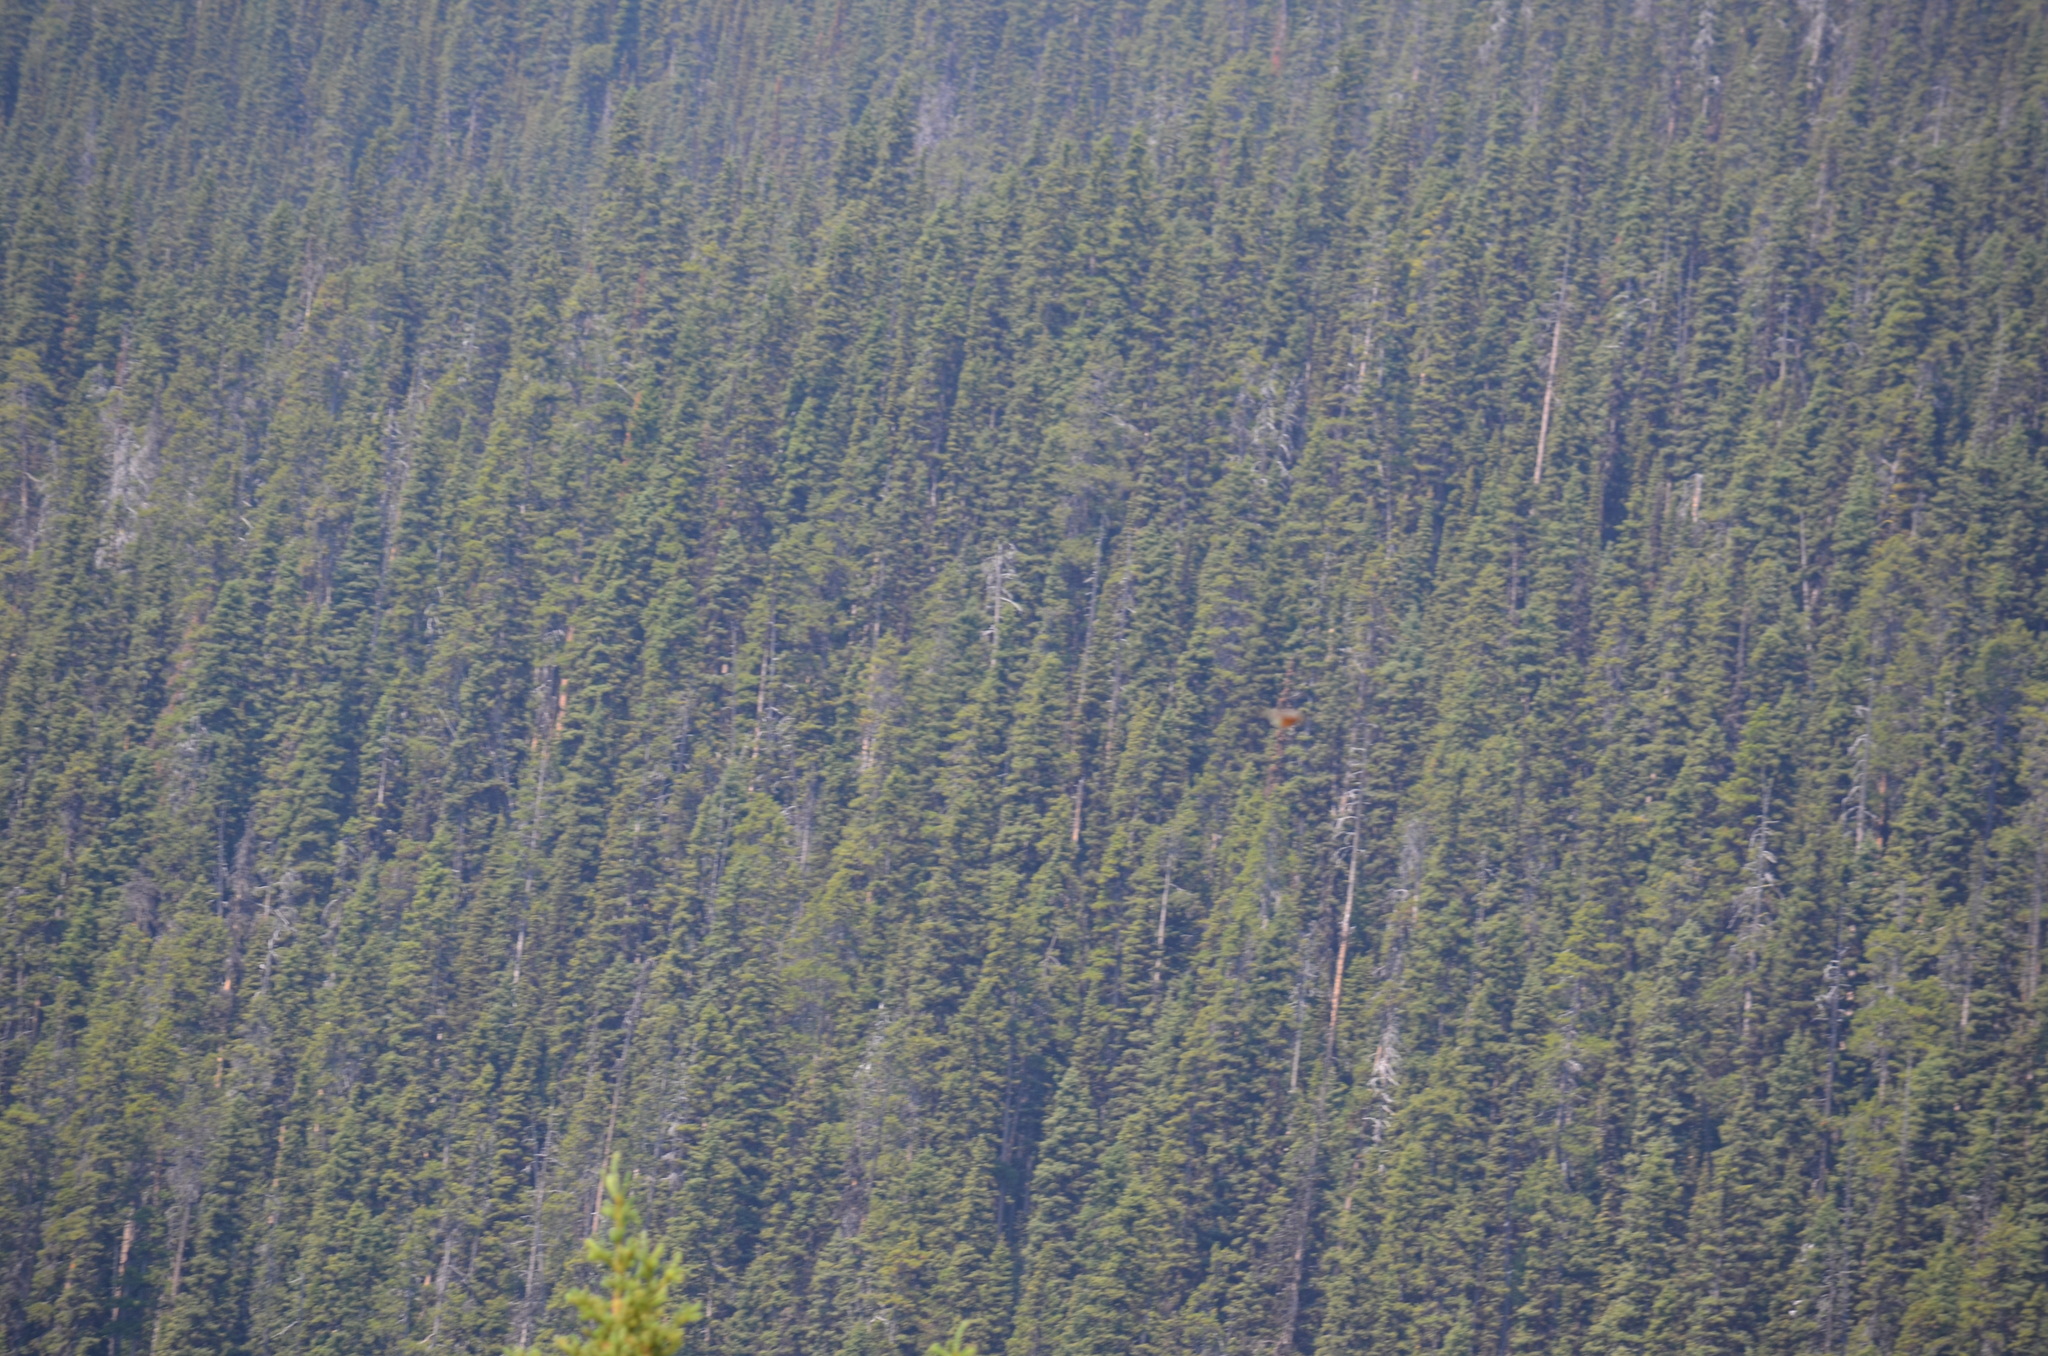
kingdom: Animalia
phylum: Chordata
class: Aves
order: Passeriformes
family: Turdidae
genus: Turdus
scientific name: Turdus migratorius
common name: American robin
